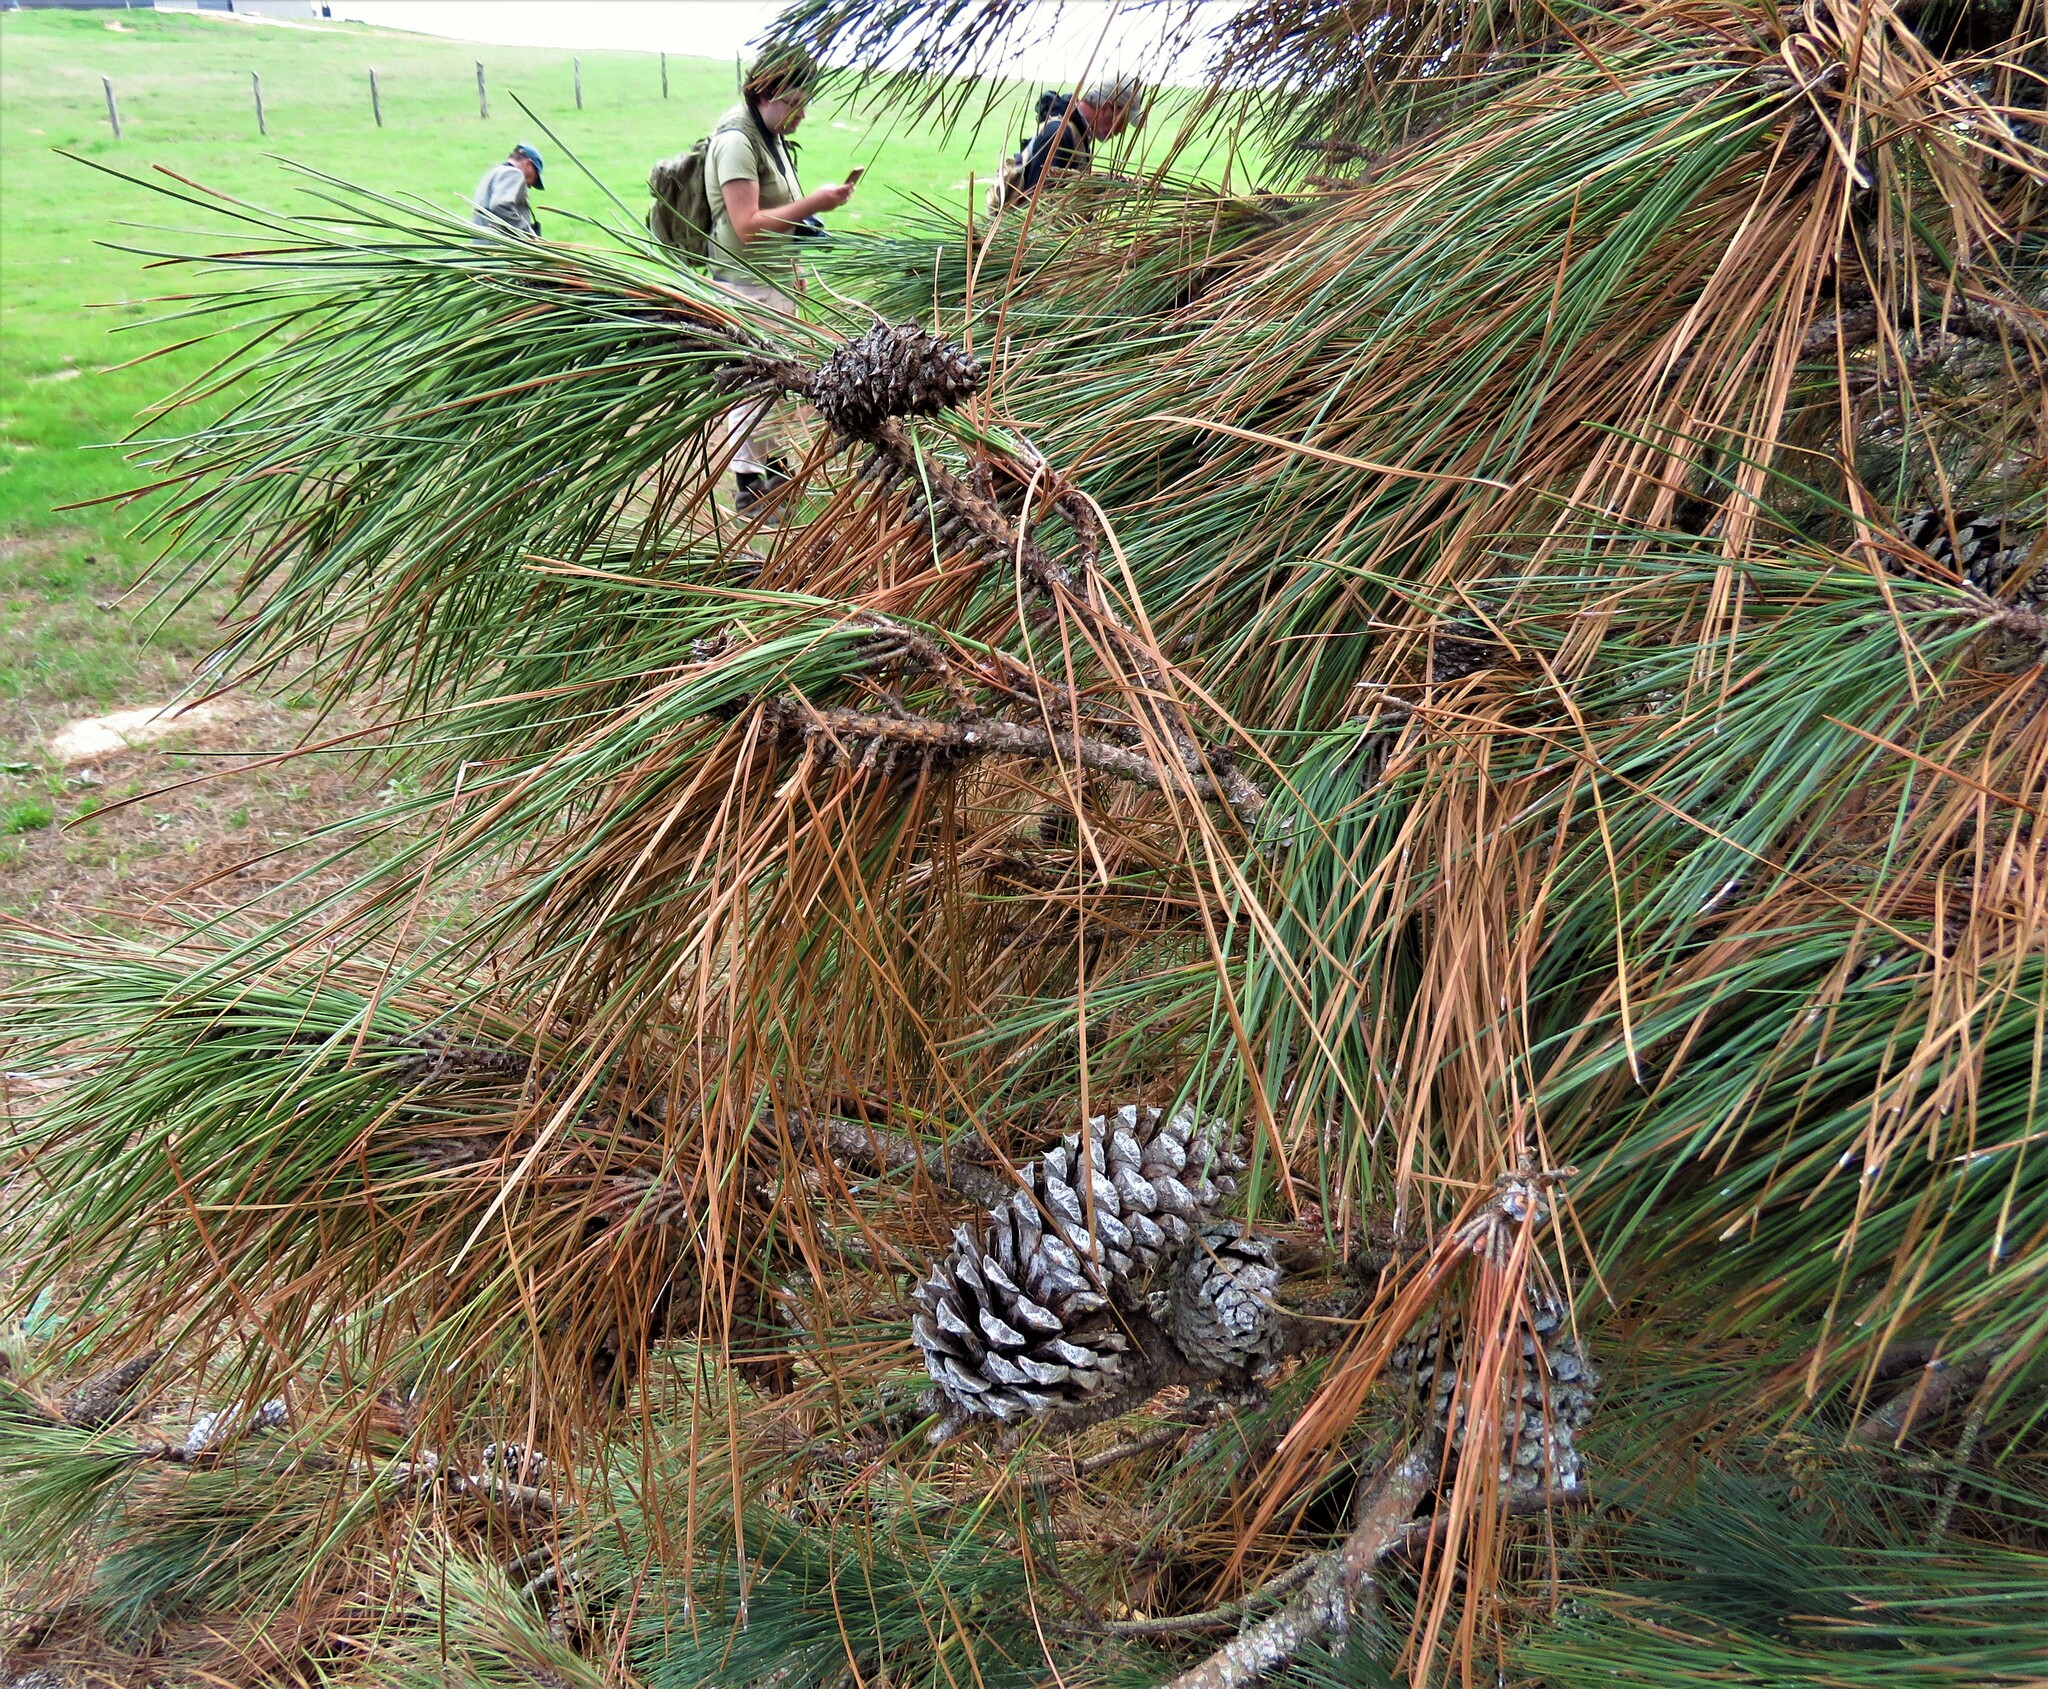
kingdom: Plantae
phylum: Tracheophyta
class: Pinopsida
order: Pinales
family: Pinaceae
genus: Pinus
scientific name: Pinus taeda
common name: Loblolly pine
